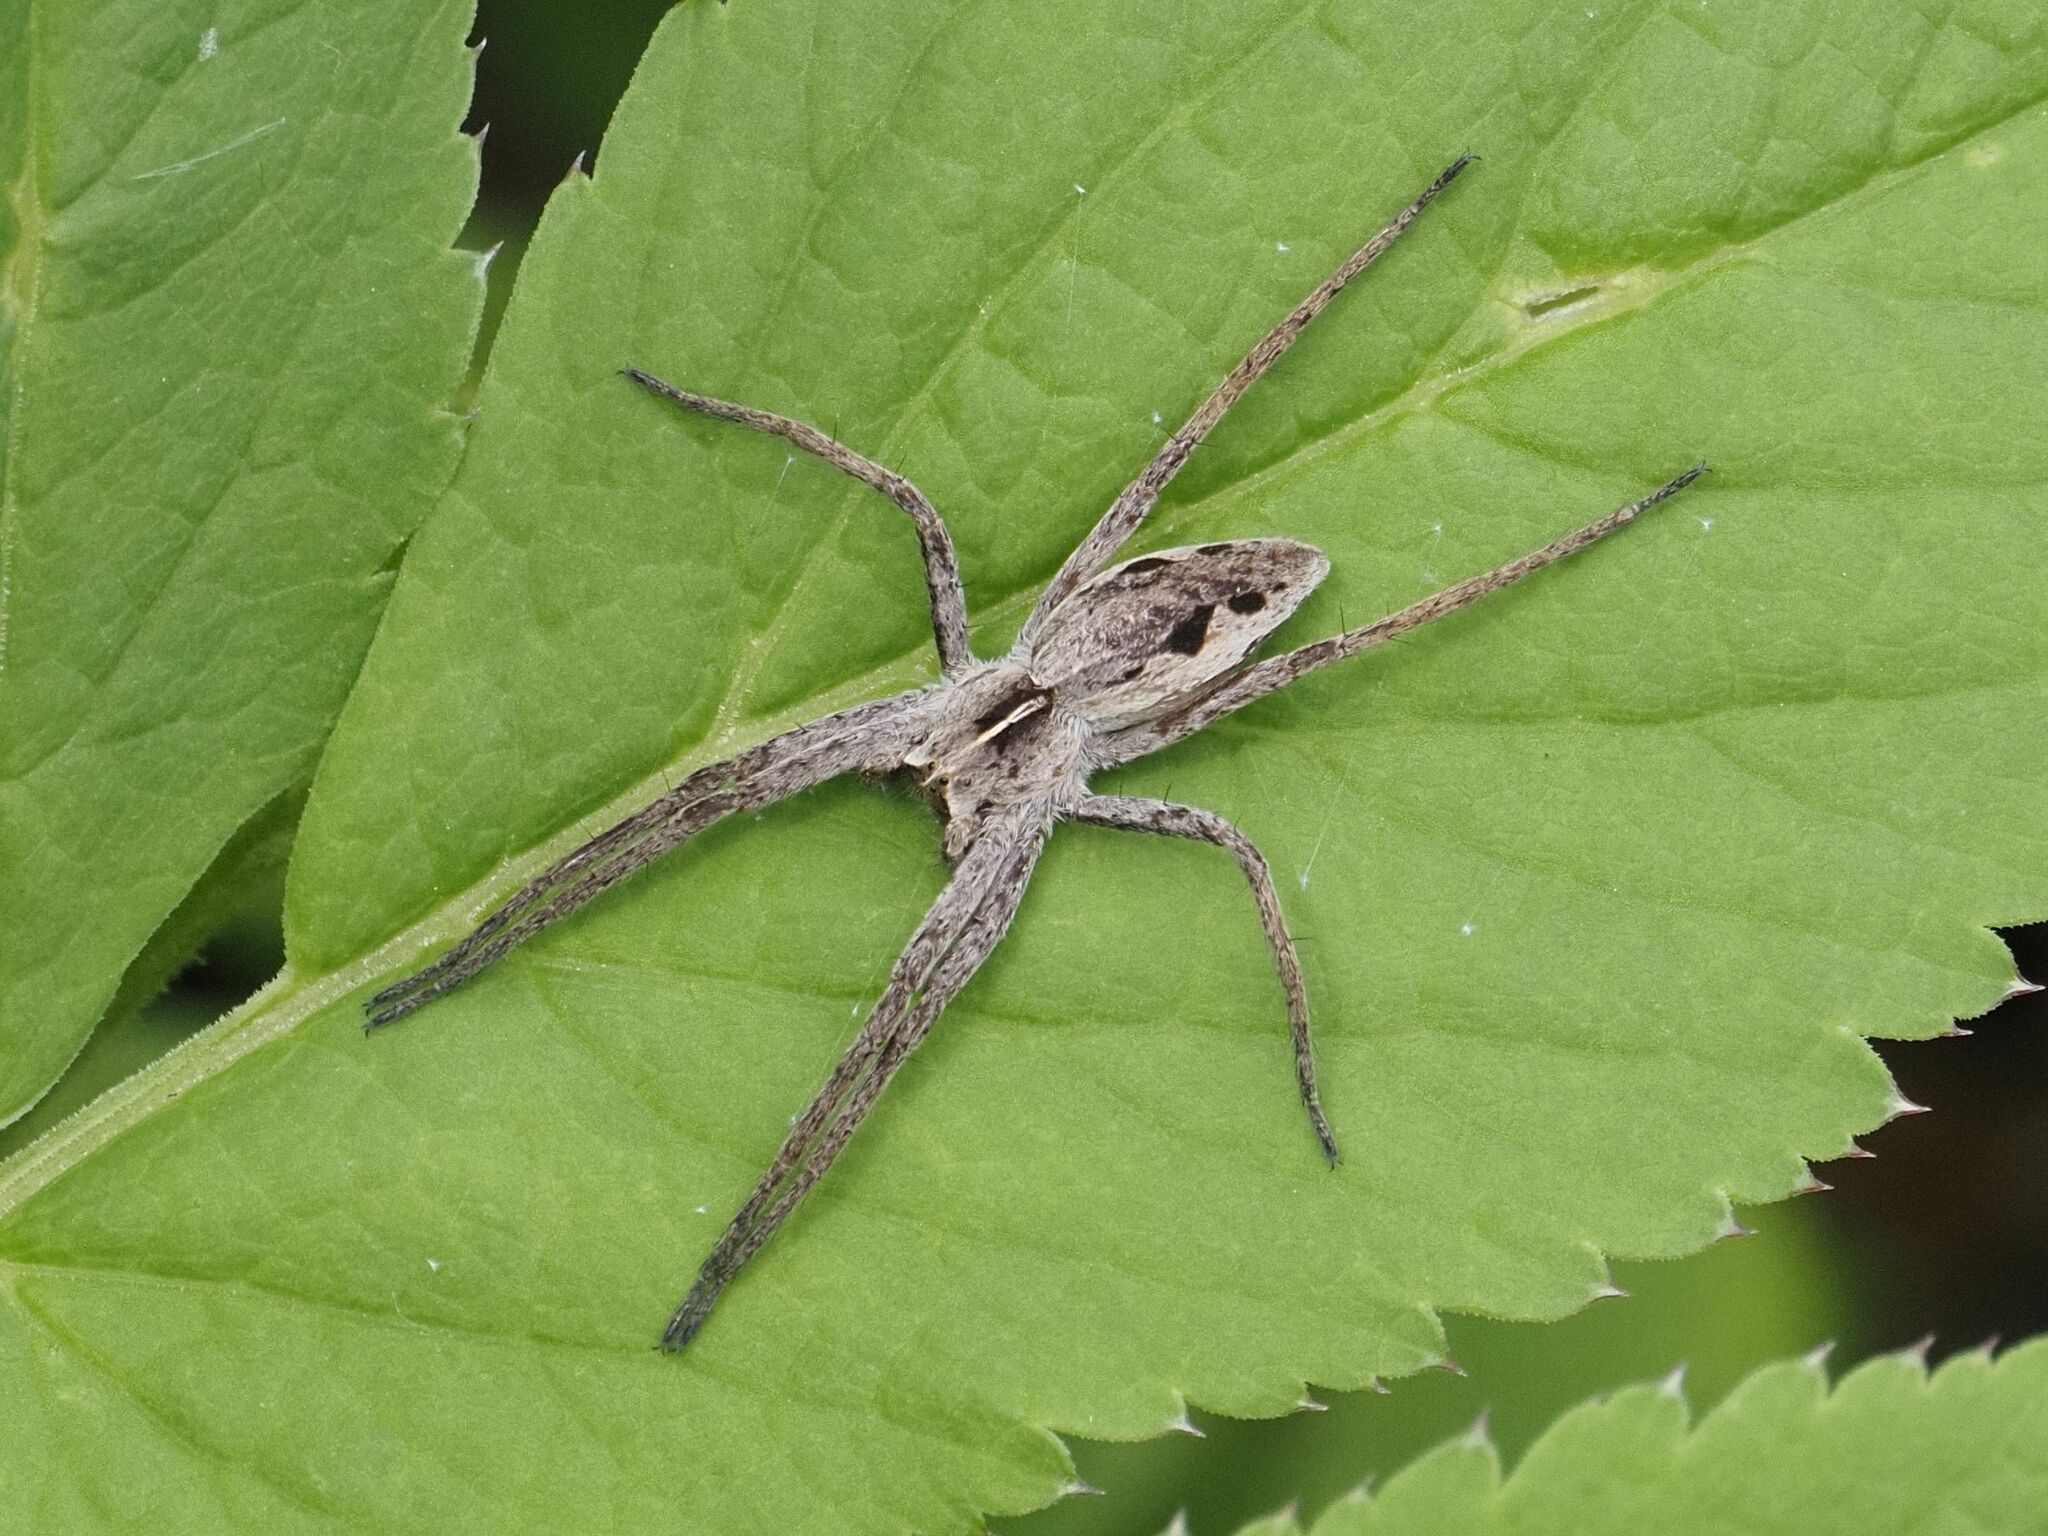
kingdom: Animalia
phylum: Arthropoda
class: Arachnida
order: Araneae
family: Pisauridae
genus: Pisaura
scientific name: Pisaura mirabilis
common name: Tent spider
